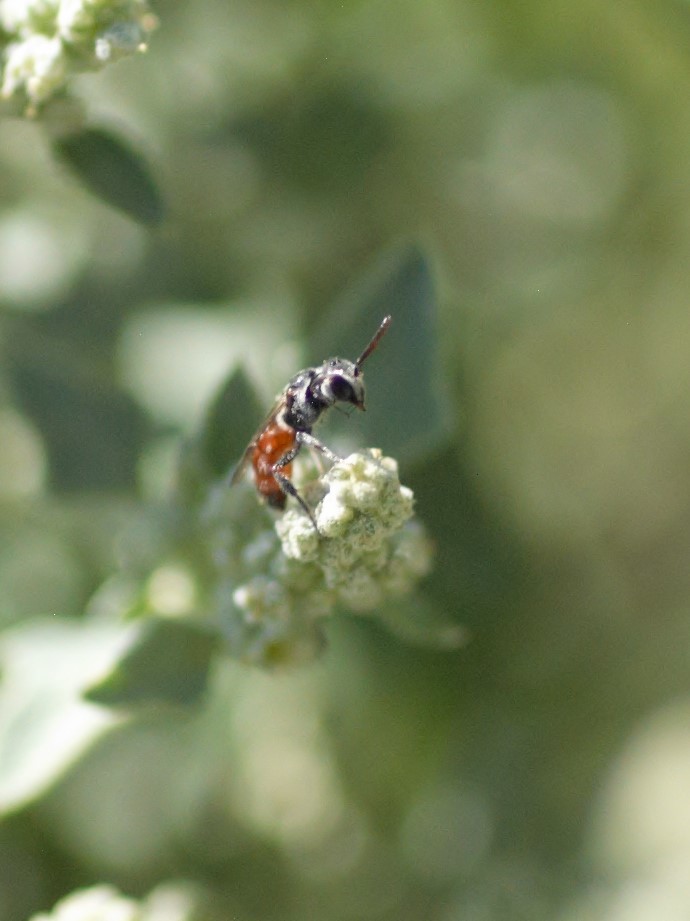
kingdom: Animalia
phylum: Arthropoda
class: Insecta
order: Hymenoptera
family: Halictidae
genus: Sphecodes
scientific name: Sphecodes
